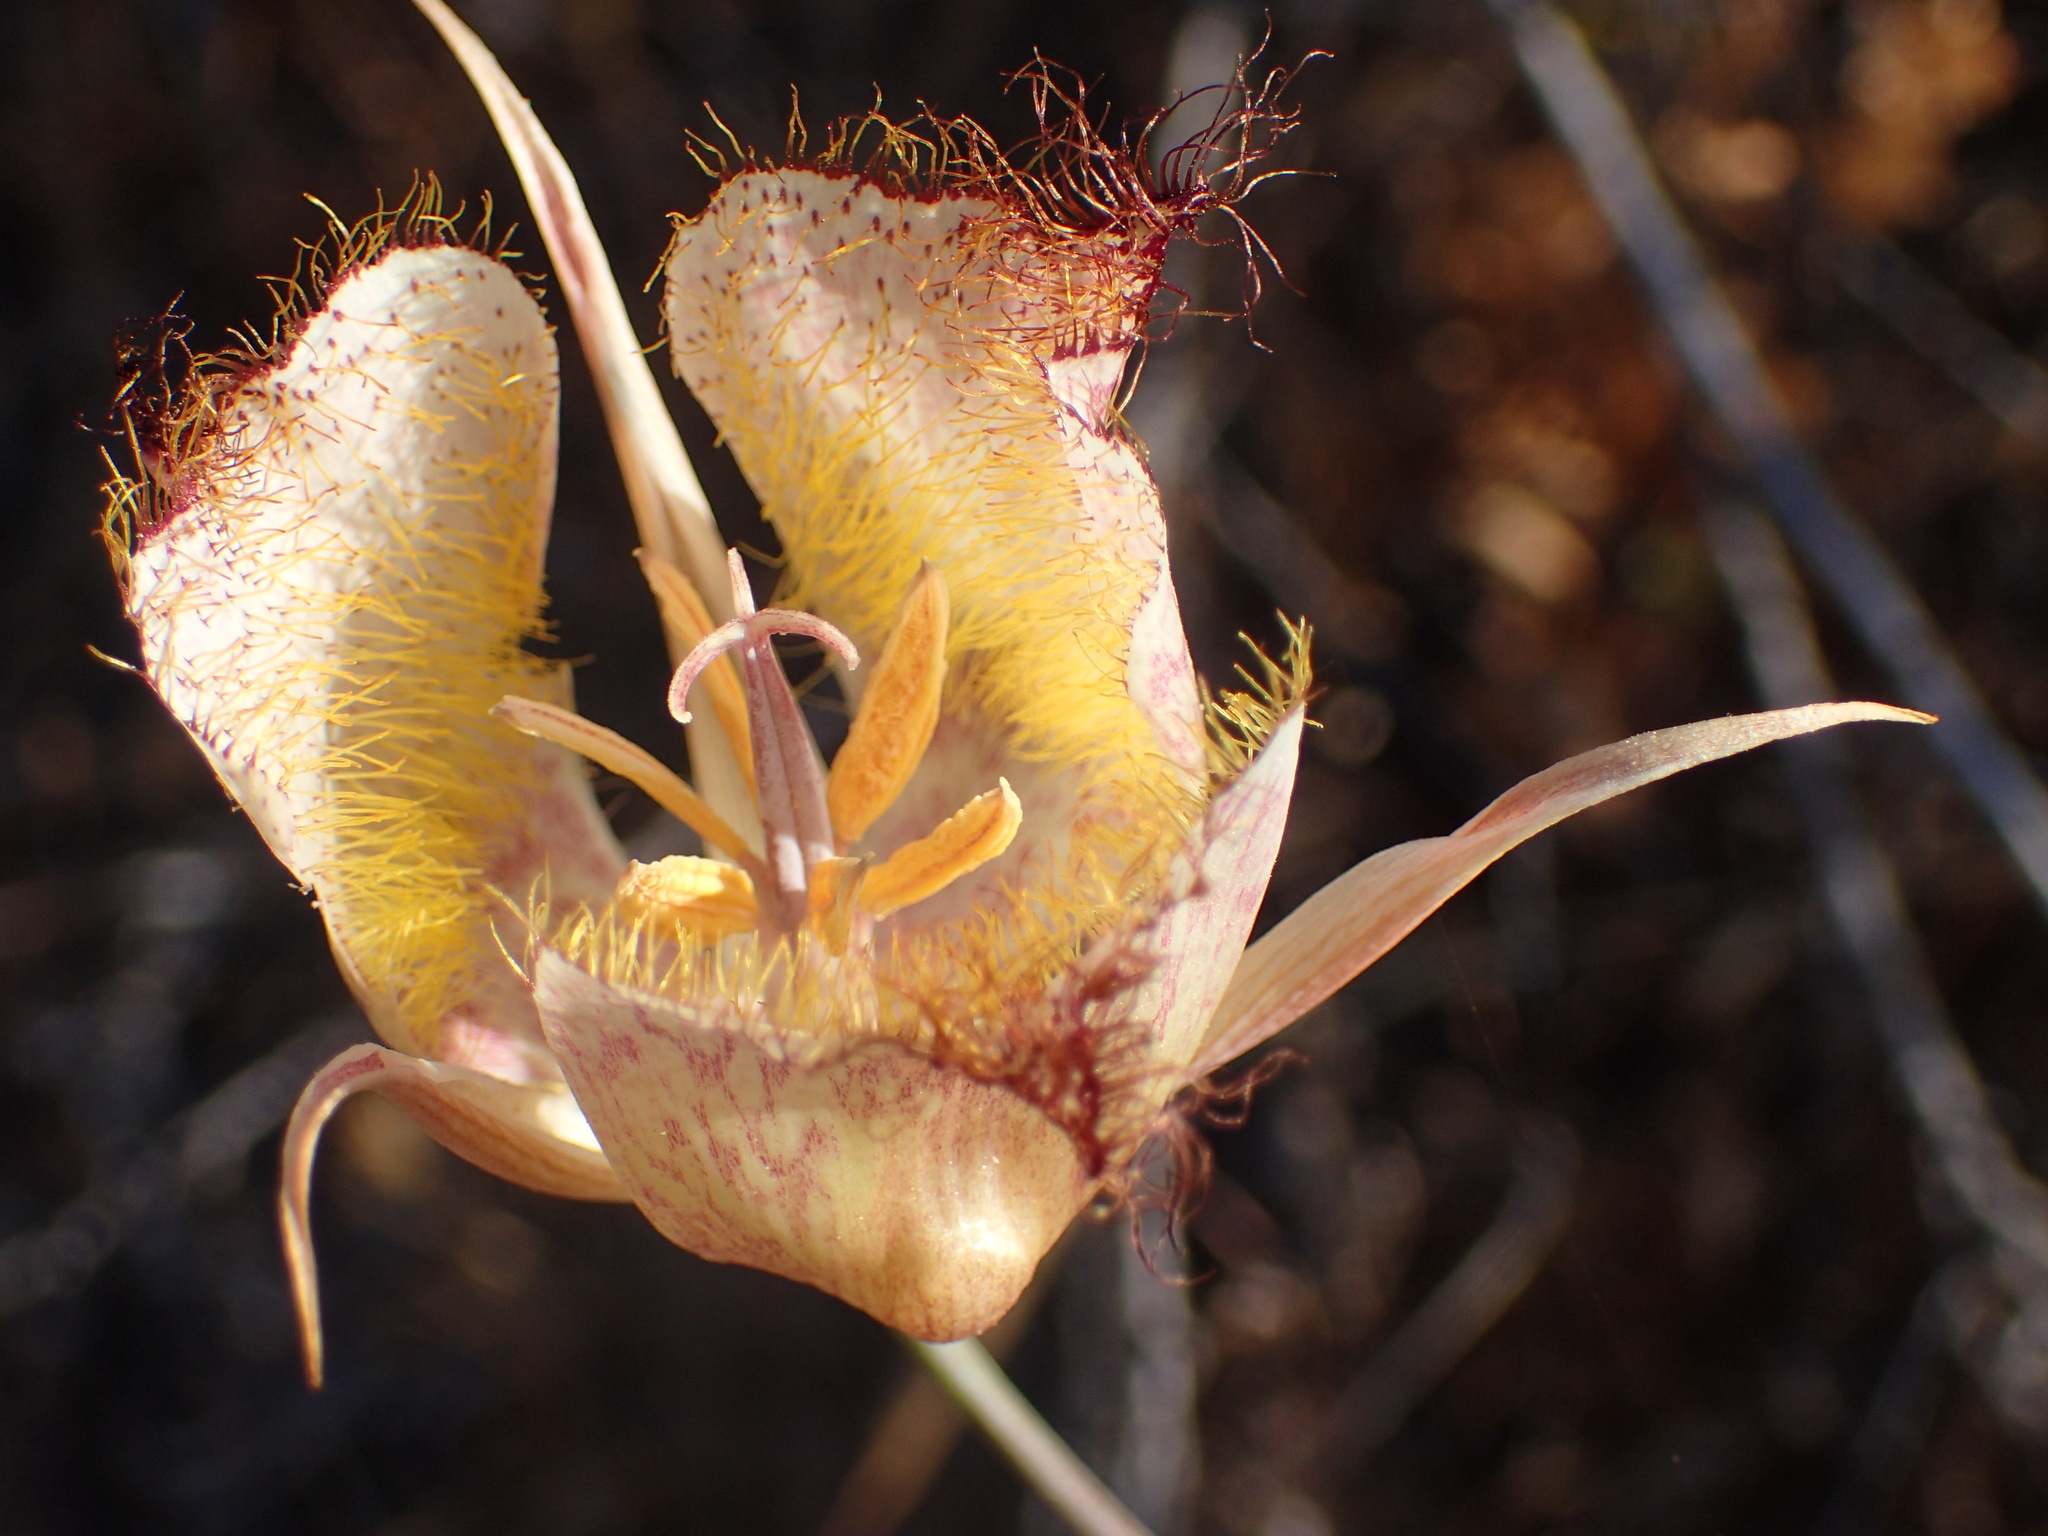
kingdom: Plantae
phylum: Tracheophyta
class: Liliopsida
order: Liliales
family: Liliaceae
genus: Calochortus
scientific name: Calochortus fimbriatus
